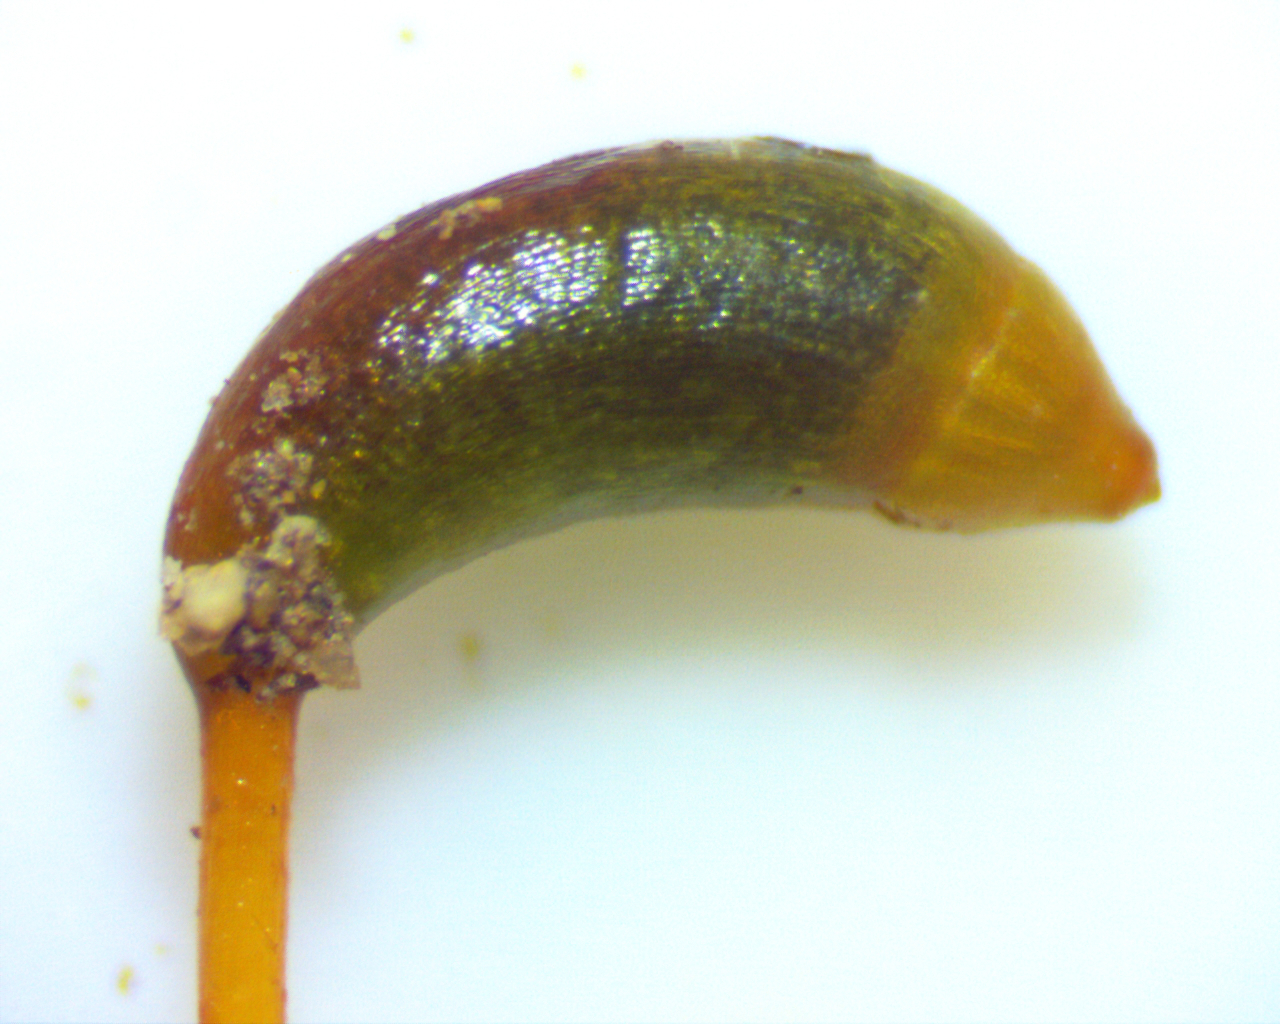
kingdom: Plantae
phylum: Bryophyta
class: Bryopsida
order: Hypnales
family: Amblystegiaceae
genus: Hygroamblystegium
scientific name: Hygroamblystegium varium
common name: Willow feather-moss
